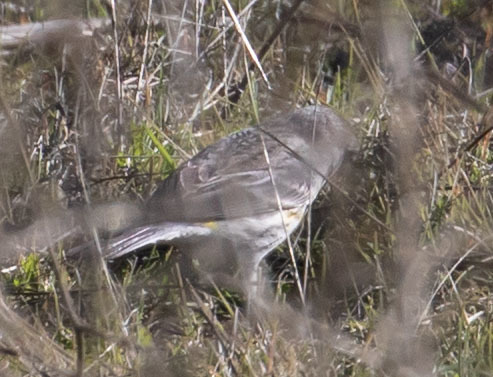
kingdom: Animalia
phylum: Chordata
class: Aves
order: Passeriformes
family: Parulidae
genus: Setophaga
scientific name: Setophaga coronata
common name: Myrtle warbler
